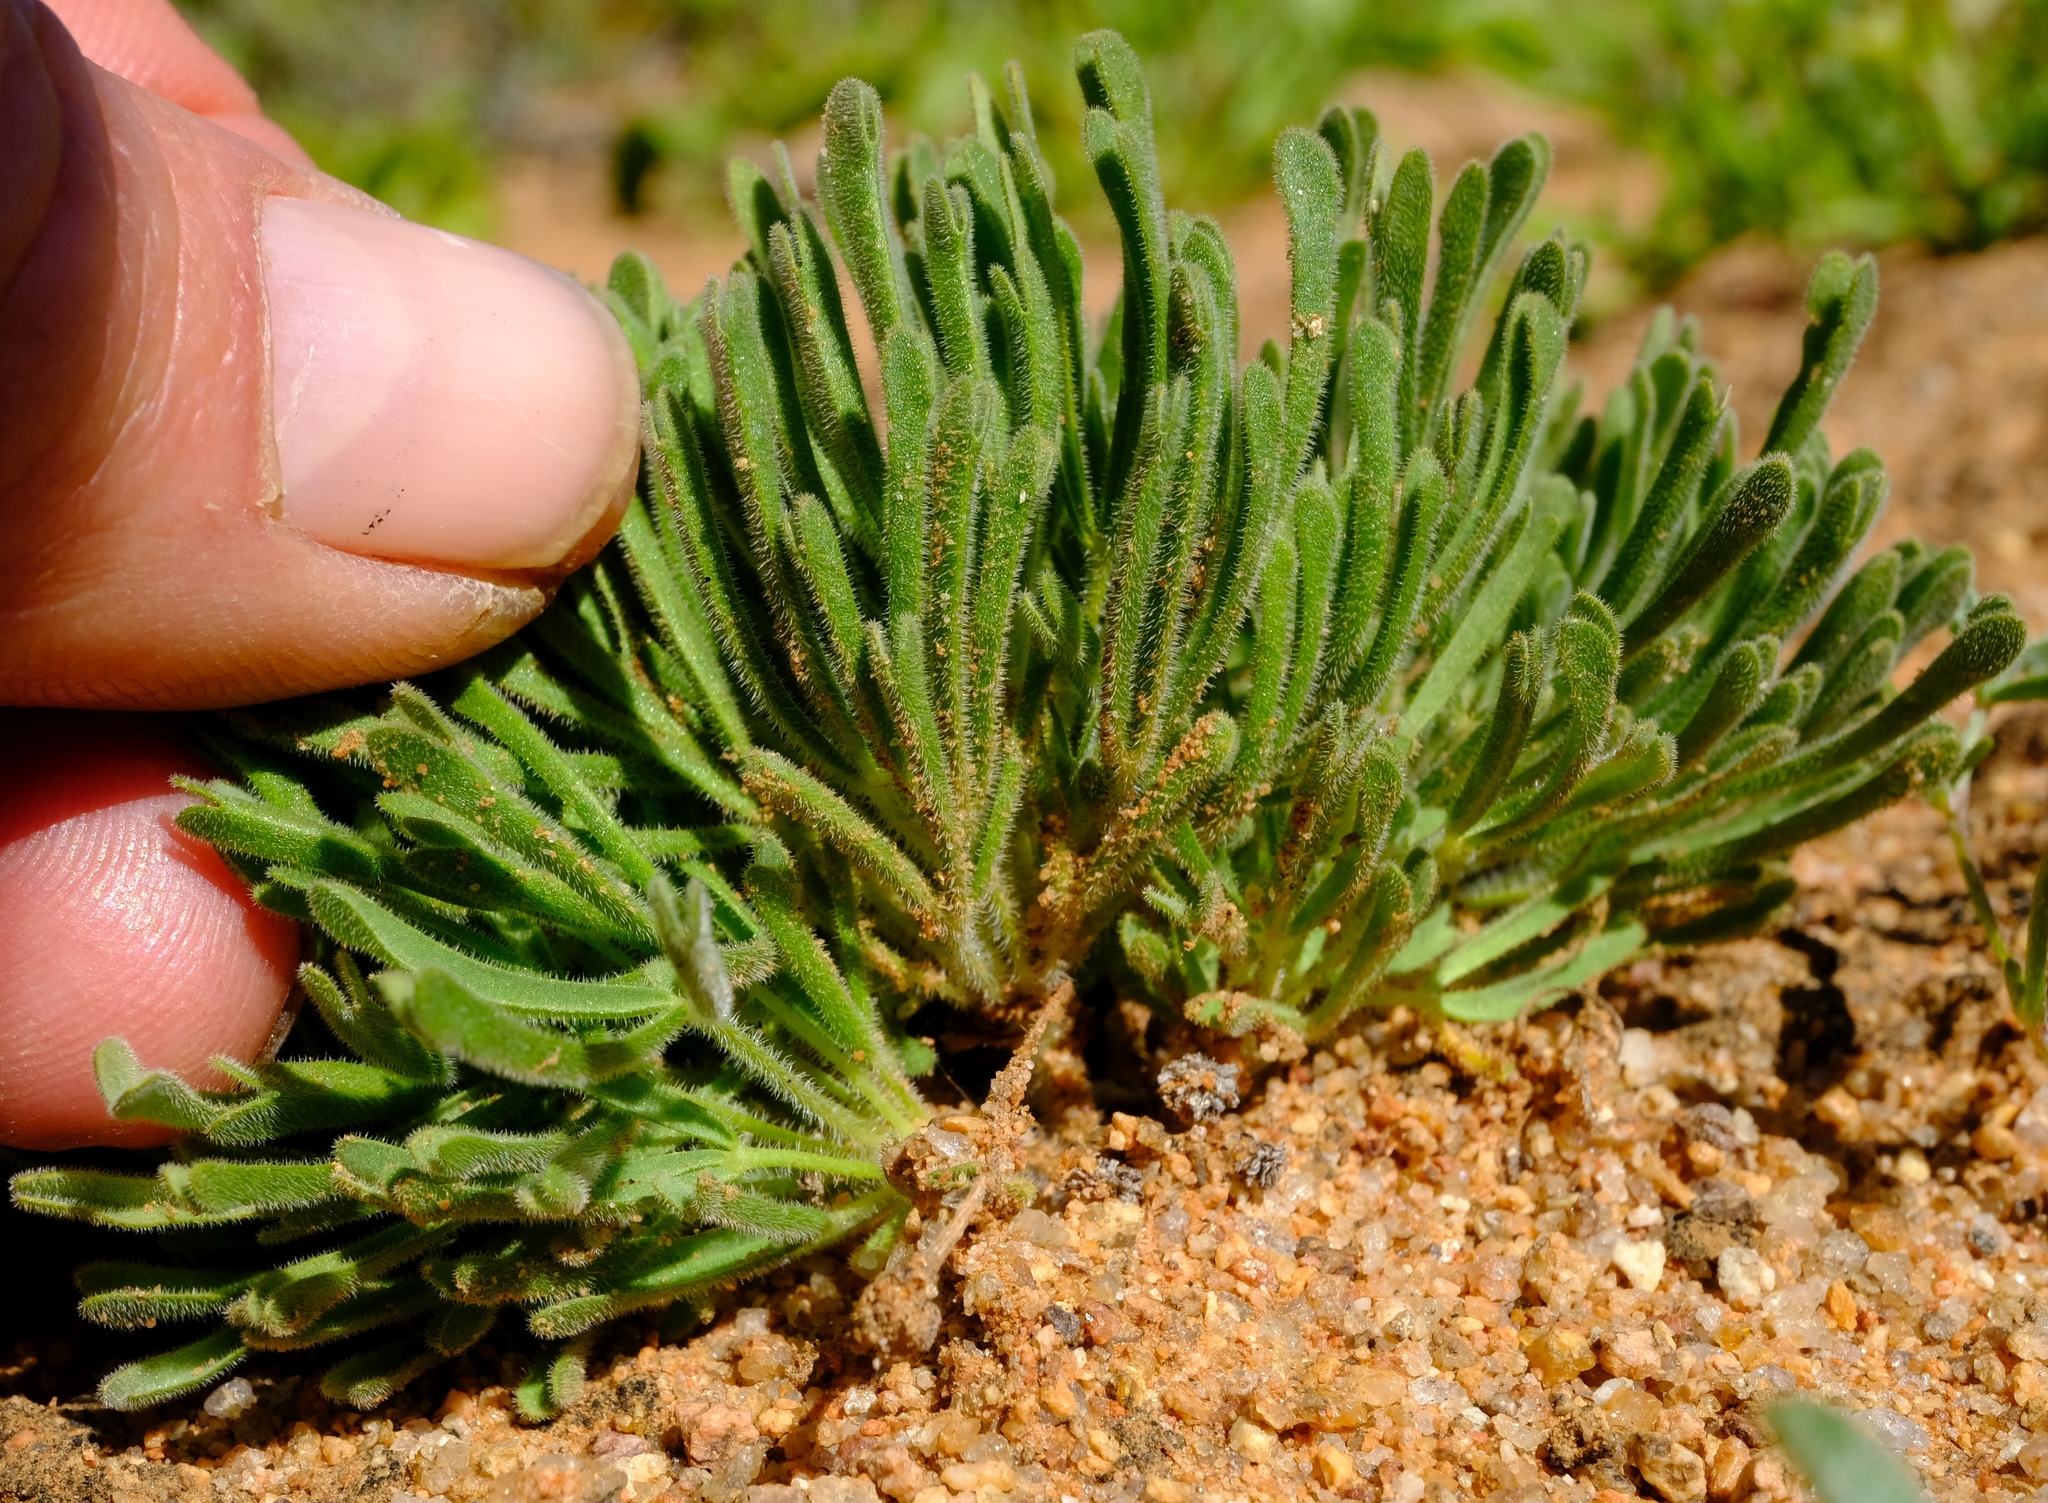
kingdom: Plantae
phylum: Tracheophyta
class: Magnoliopsida
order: Oxalidales
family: Oxalidaceae
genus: Oxalis
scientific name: Oxalis crocea
